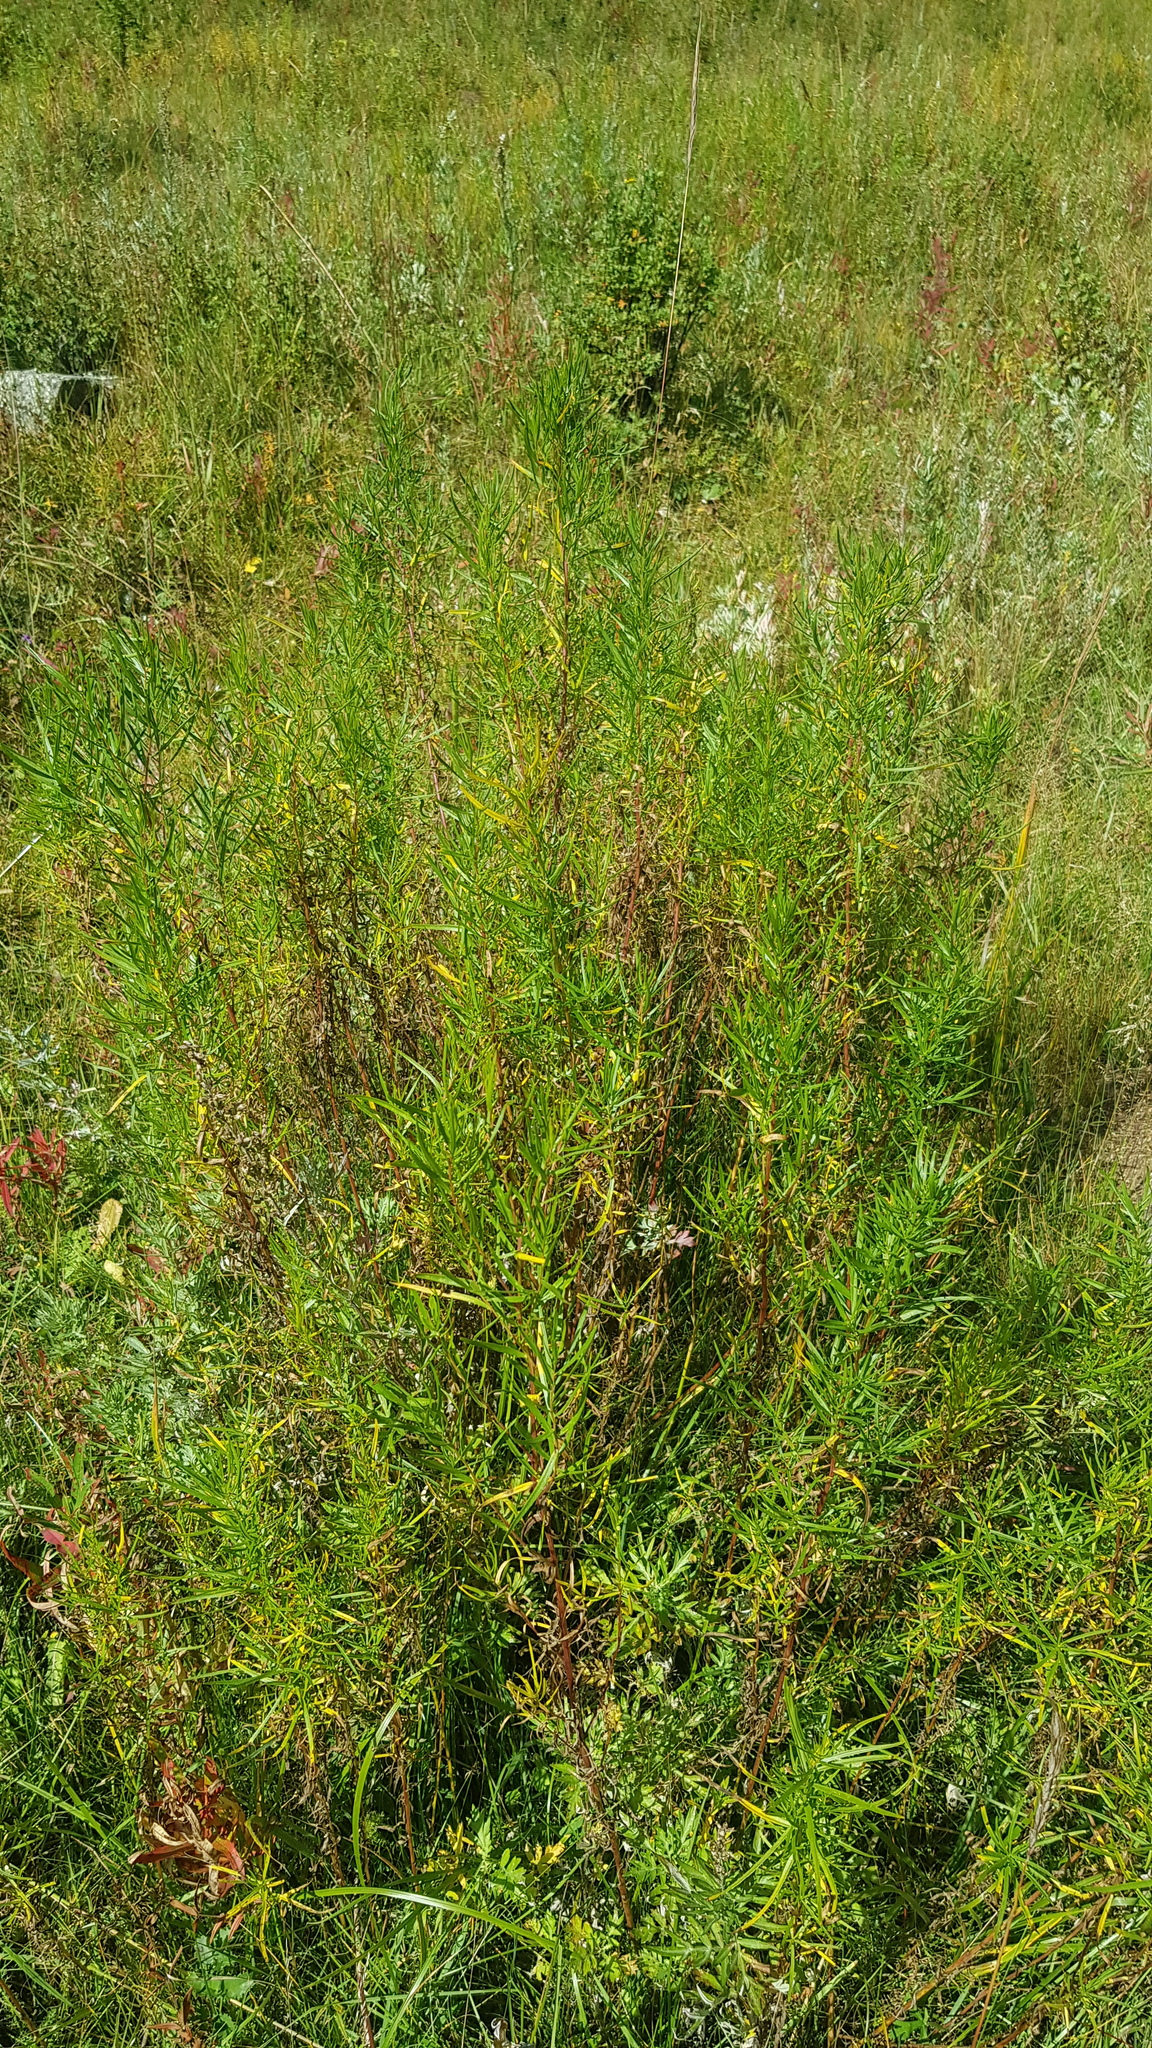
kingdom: Plantae
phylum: Tracheophyta
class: Magnoliopsida
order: Asterales
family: Asteraceae
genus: Artemisia
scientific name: Artemisia dracunculus
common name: Tarragon
